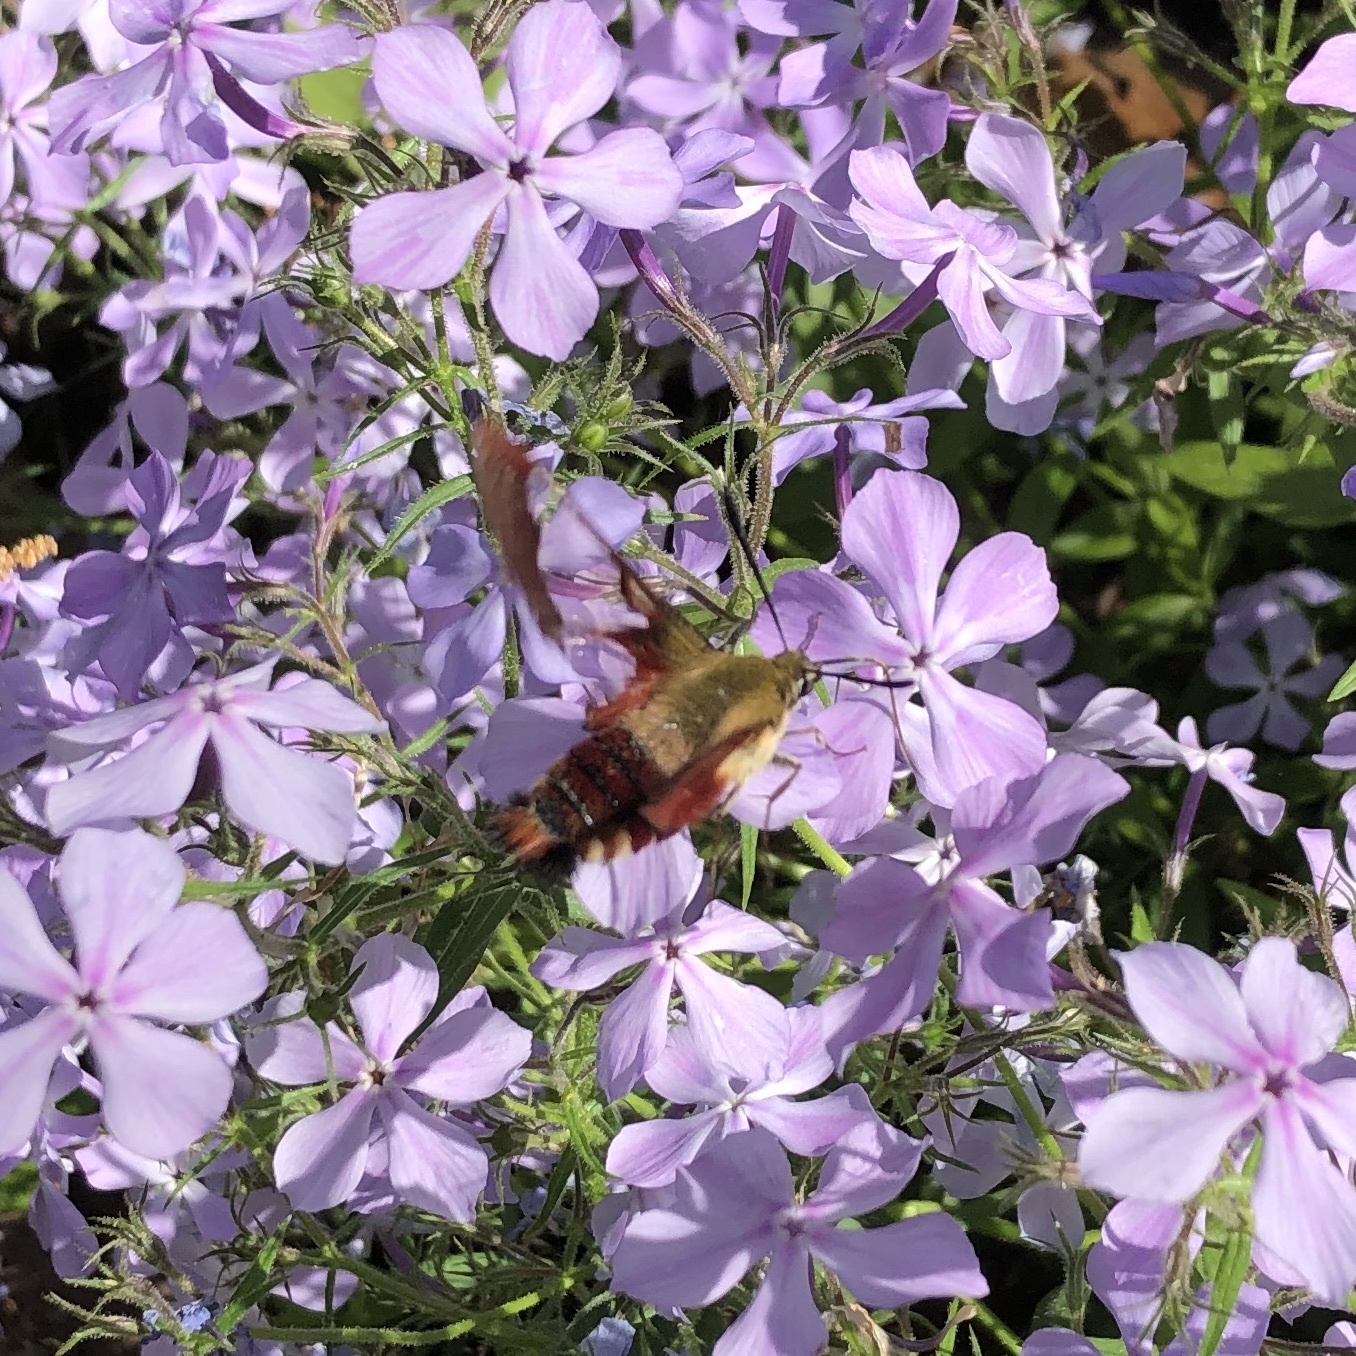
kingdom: Animalia
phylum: Arthropoda
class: Insecta
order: Lepidoptera
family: Sphingidae
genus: Hemaris
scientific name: Hemaris thysbe
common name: Common clear-wing
